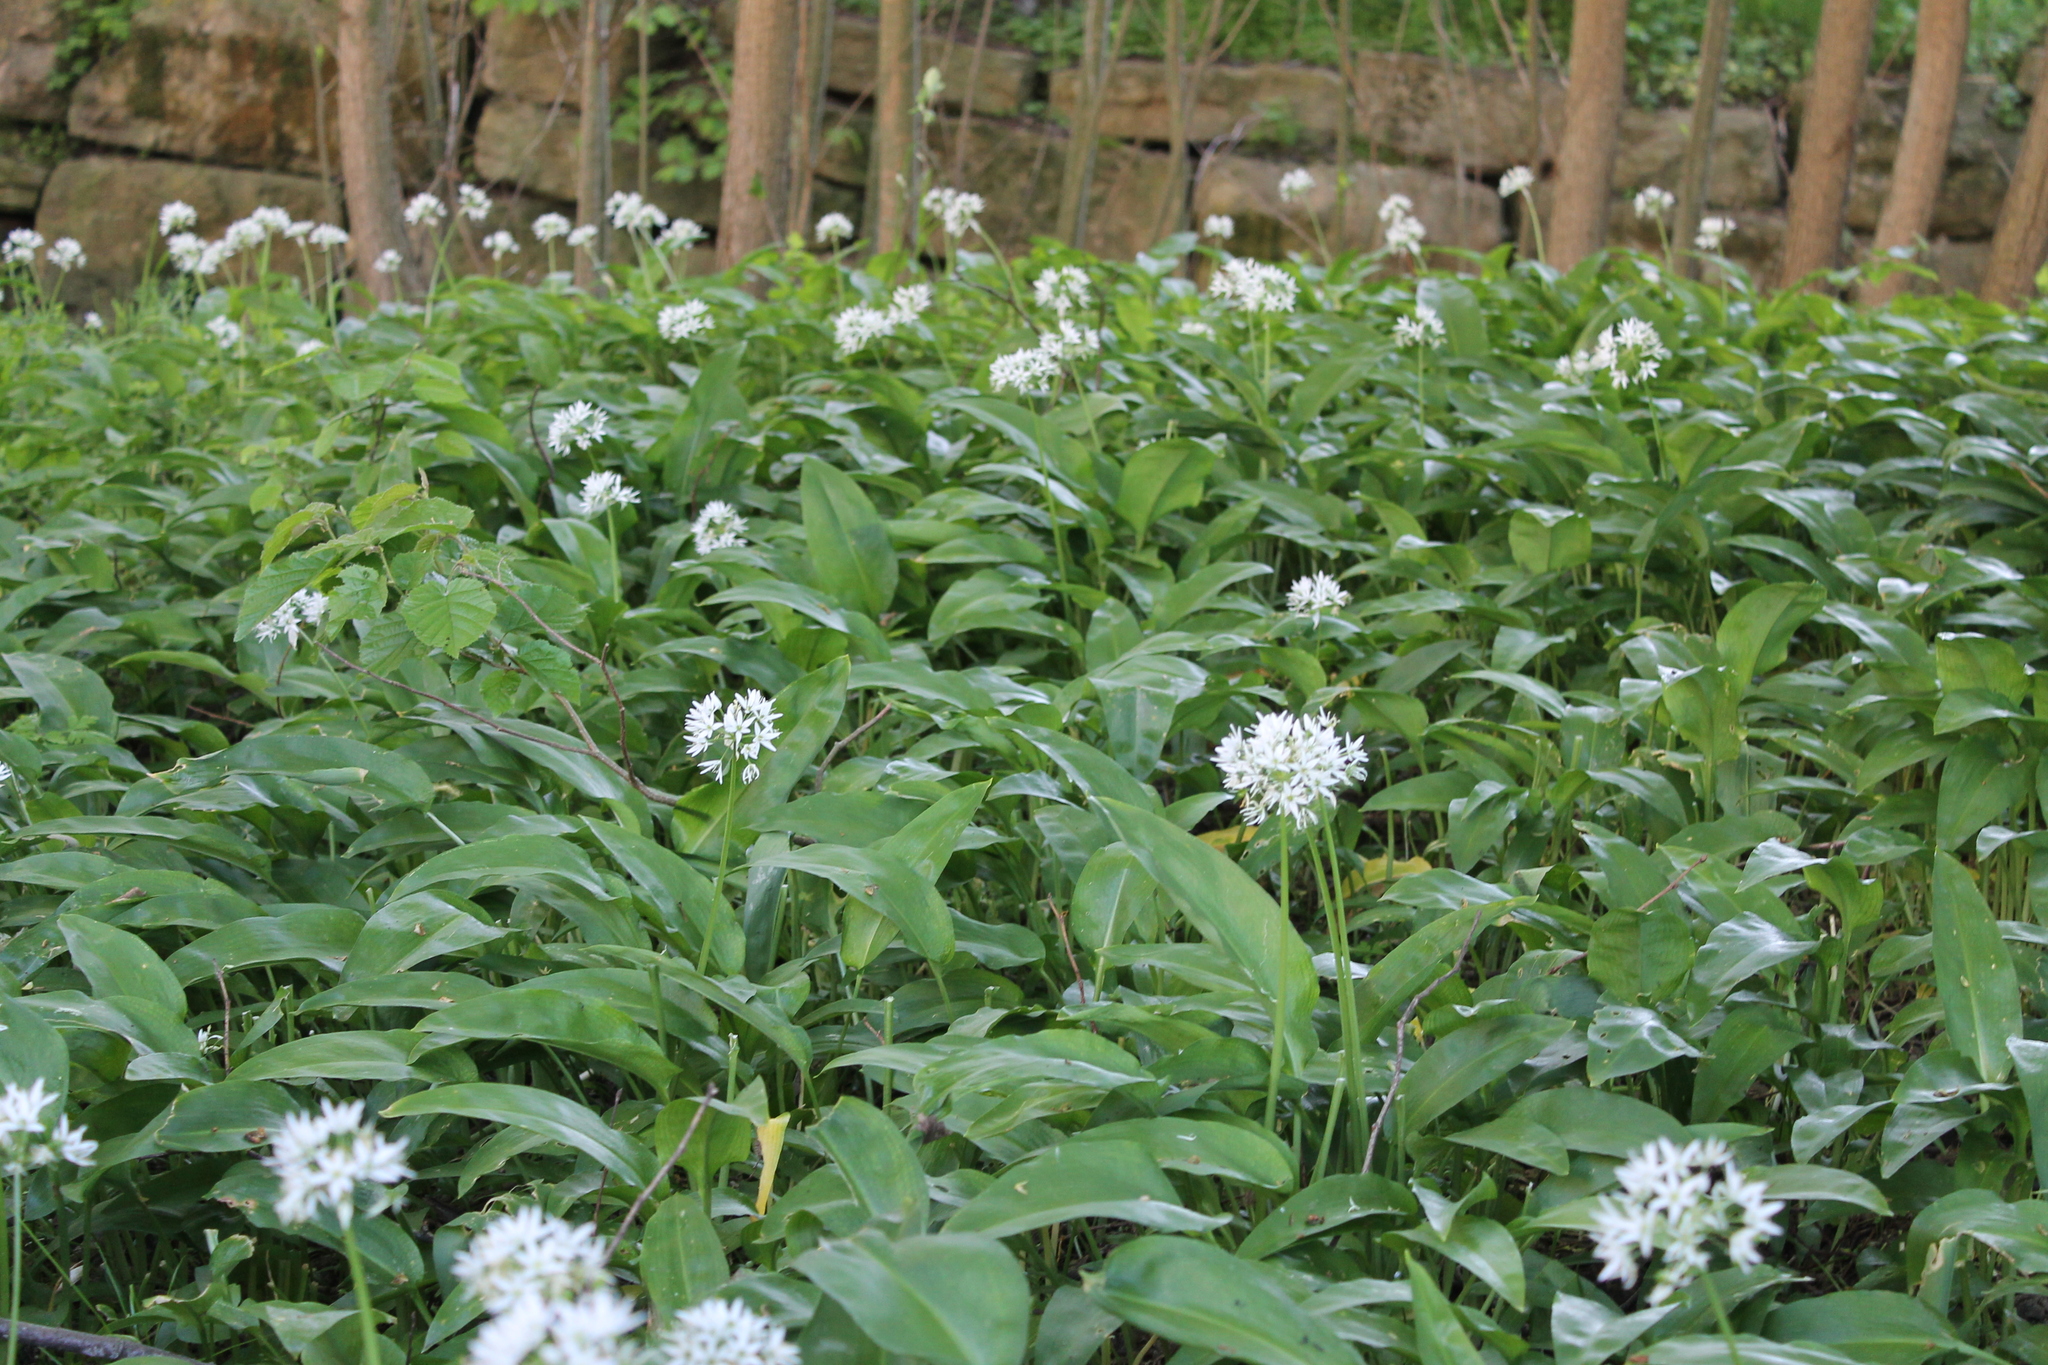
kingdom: Plantae
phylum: Tracheophyta
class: Liliopsida
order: Asparagales
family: Amaryllidaceae
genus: Allium
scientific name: Allium ursinum
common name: Ramsons
